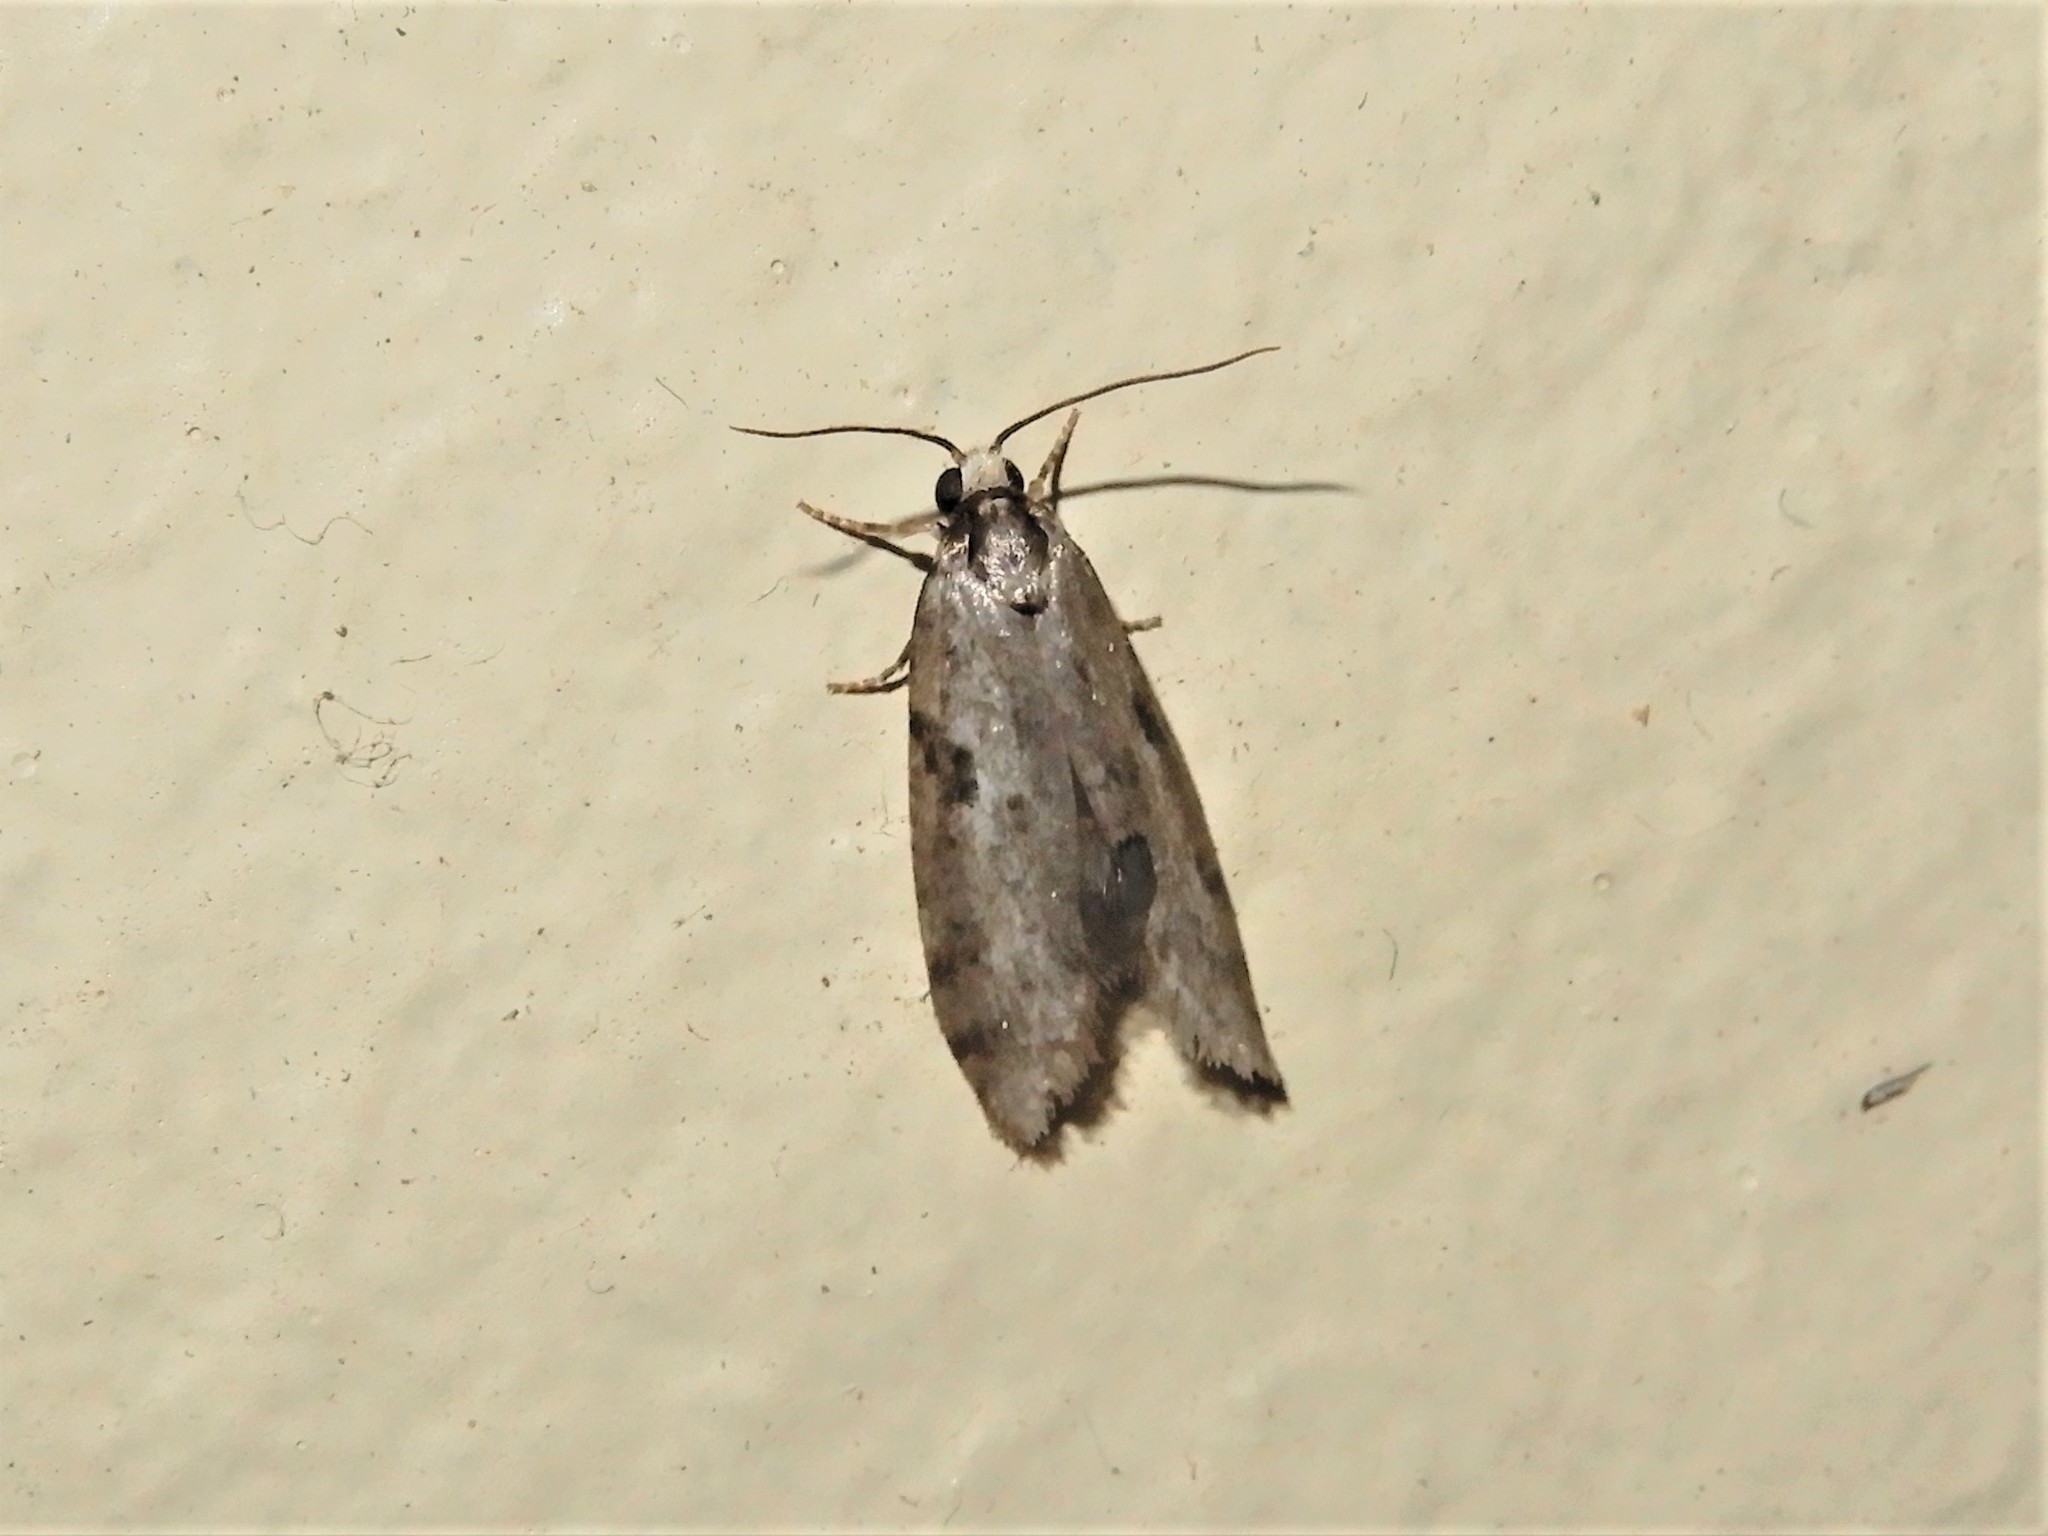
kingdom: Animalia
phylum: Arthropoda
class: Insecta
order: Lepidoptera
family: Psychidae
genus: Lepidoscia
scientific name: Lepidoscia protorna
